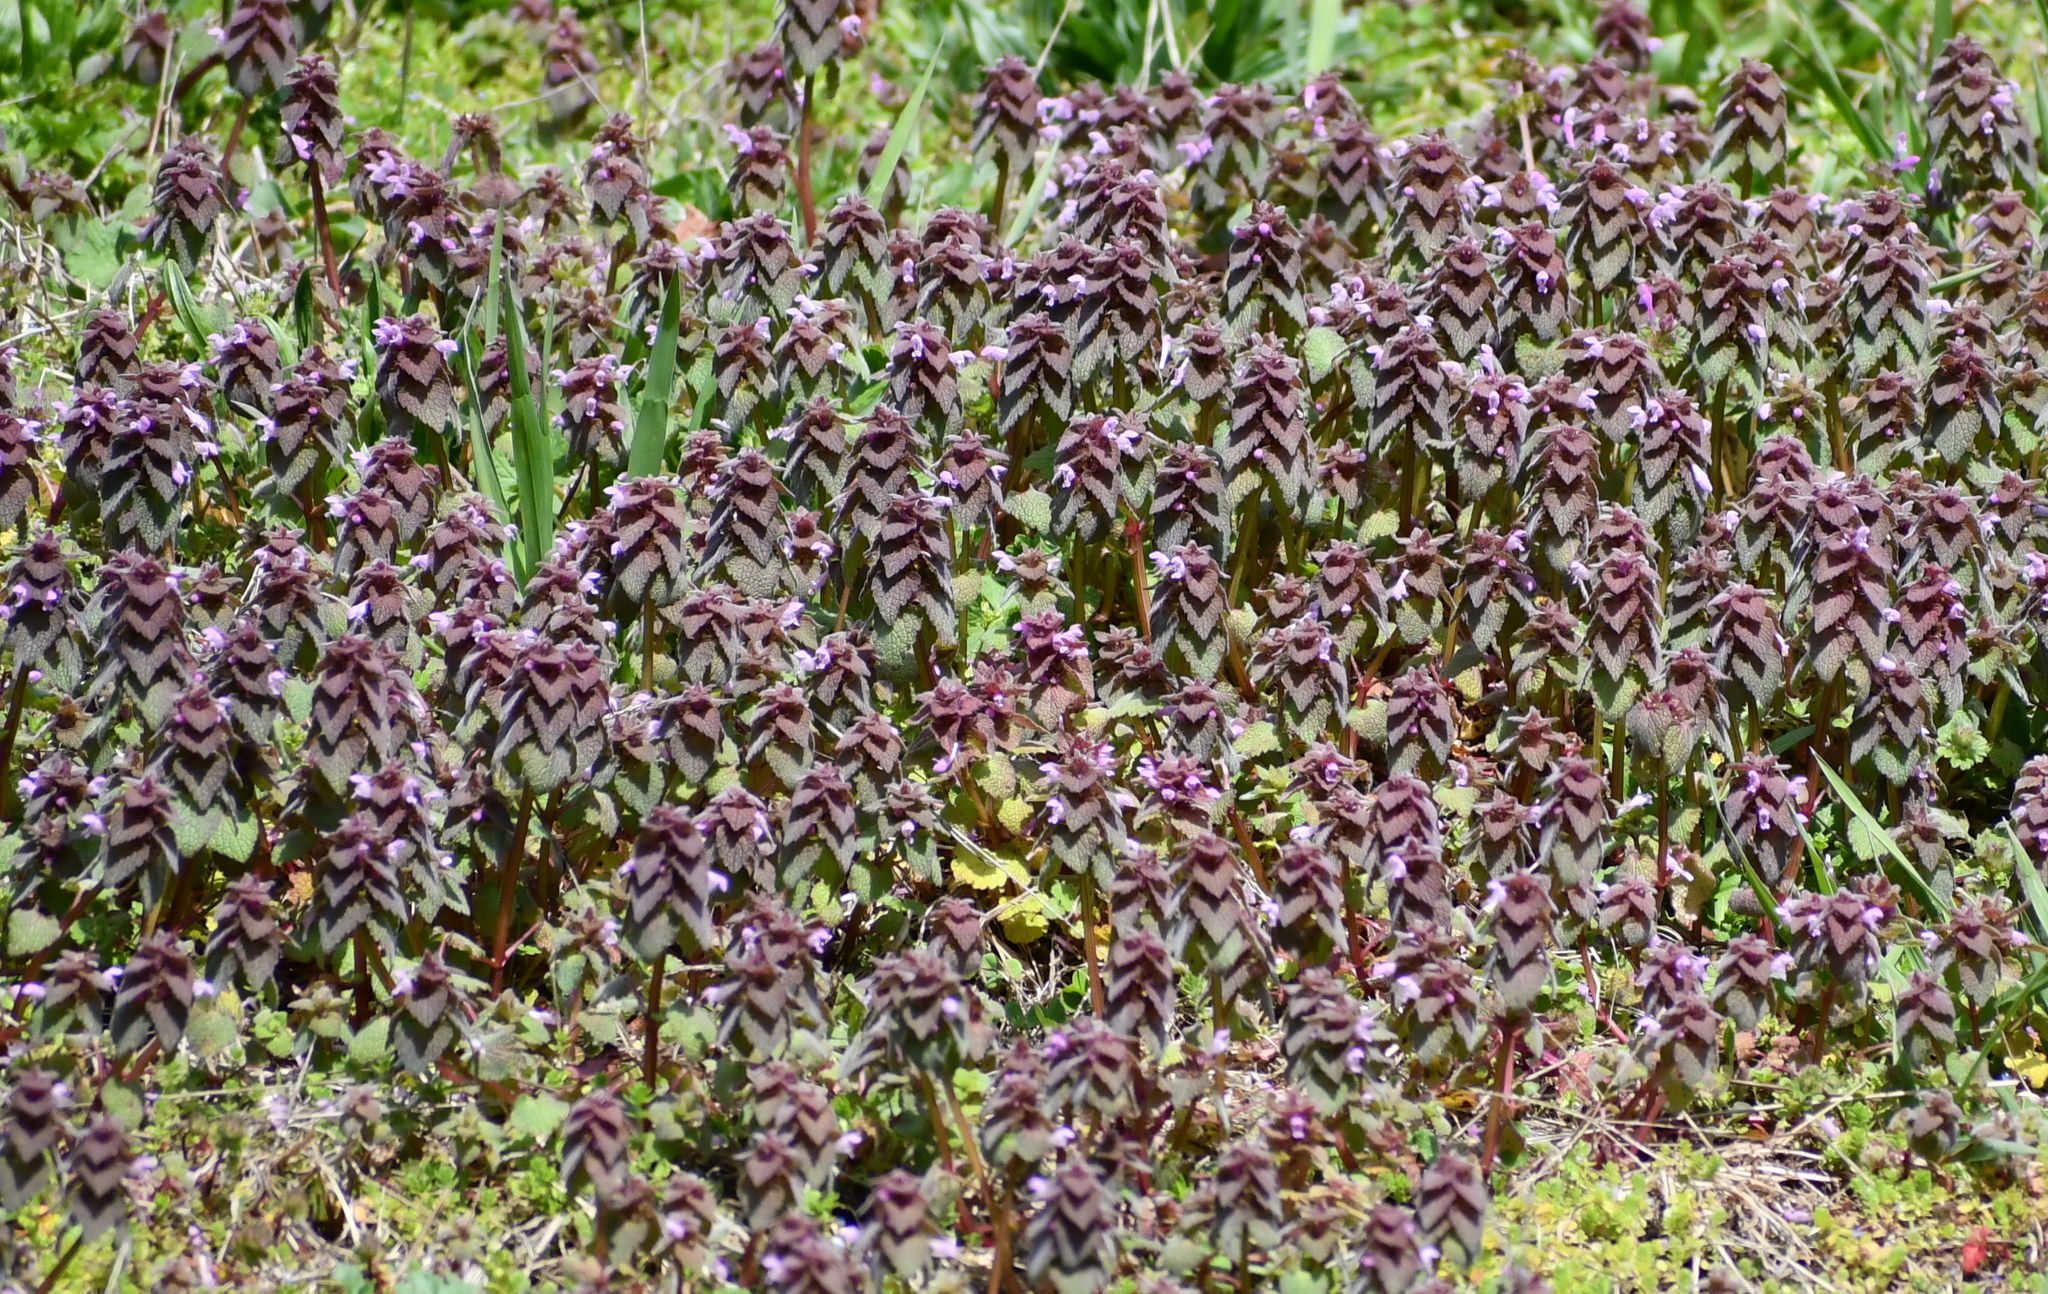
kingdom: Plantae
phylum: Tracheophyta
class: Magnoliopsida
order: Lamiales
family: Lamiaceae
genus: Lamium
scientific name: Lamium purpureum
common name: Red dead-nettle
